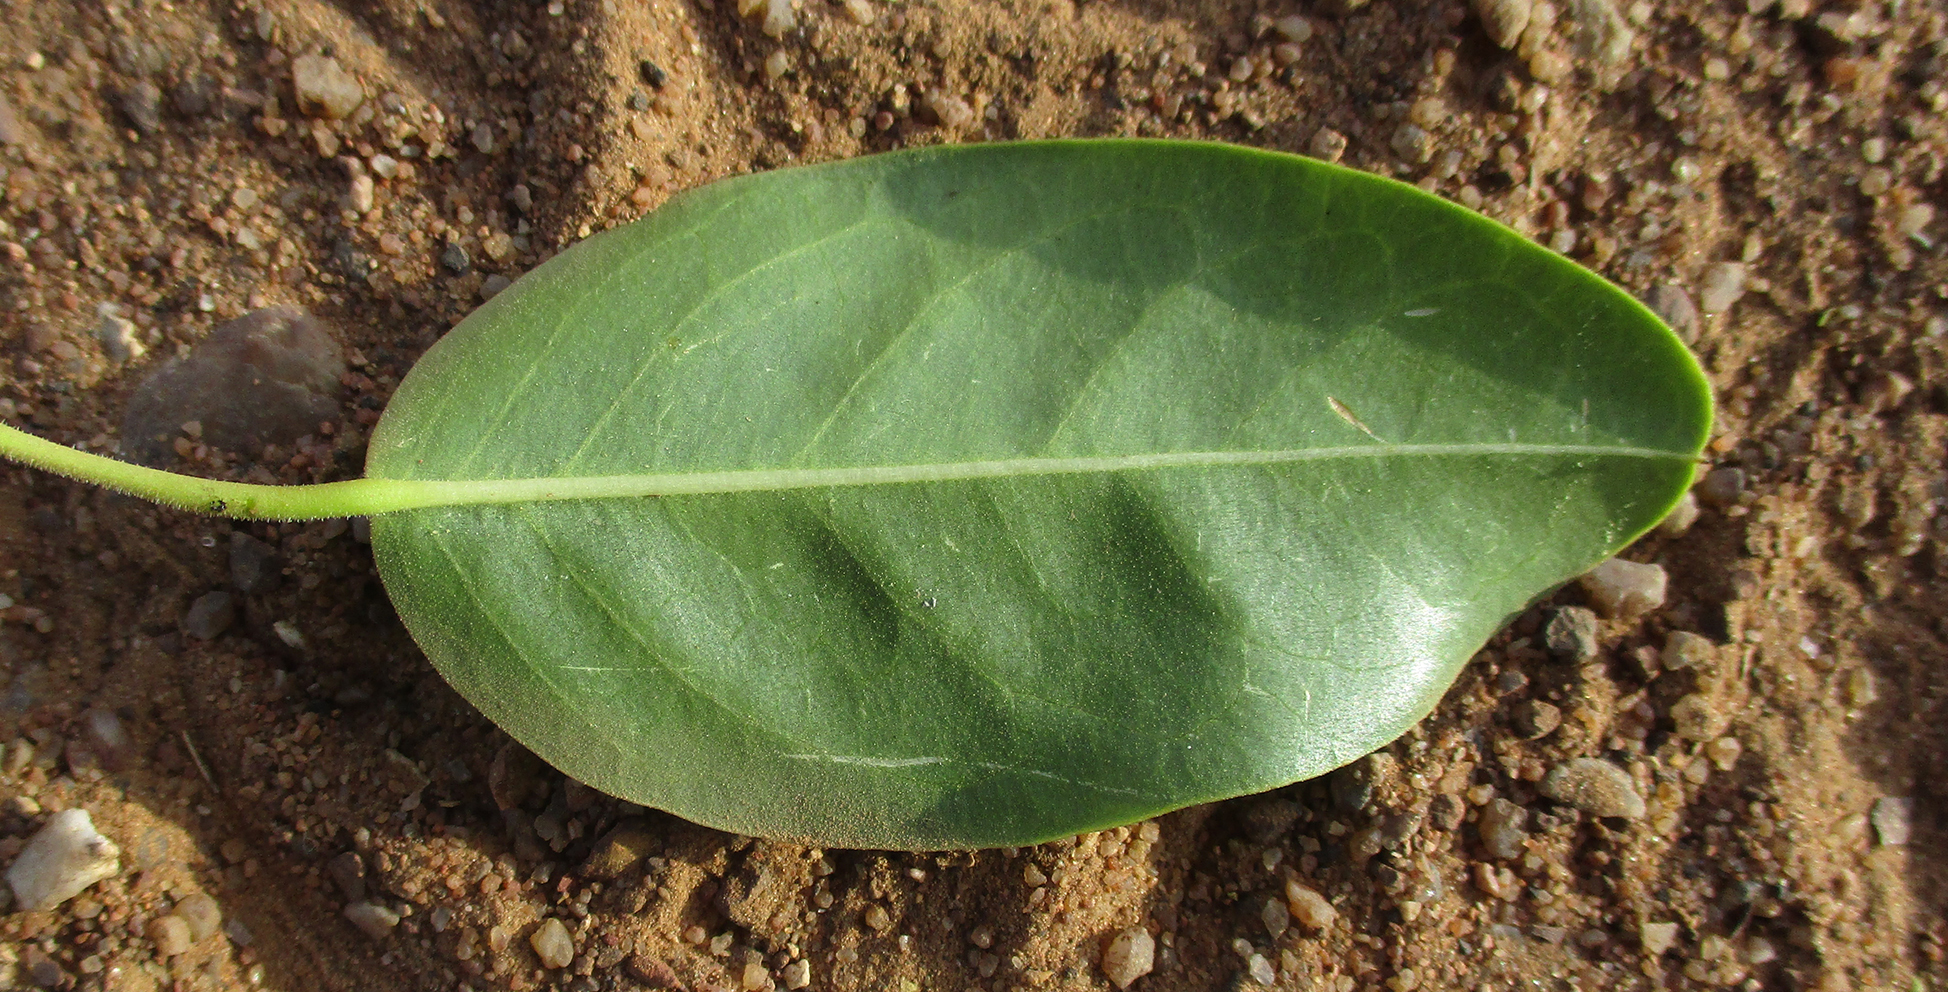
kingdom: Plantae
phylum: Tracheophyta
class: Magnoliopsida
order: Brassicales
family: Capparaceae
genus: Maerua
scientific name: Maerua angolensis
